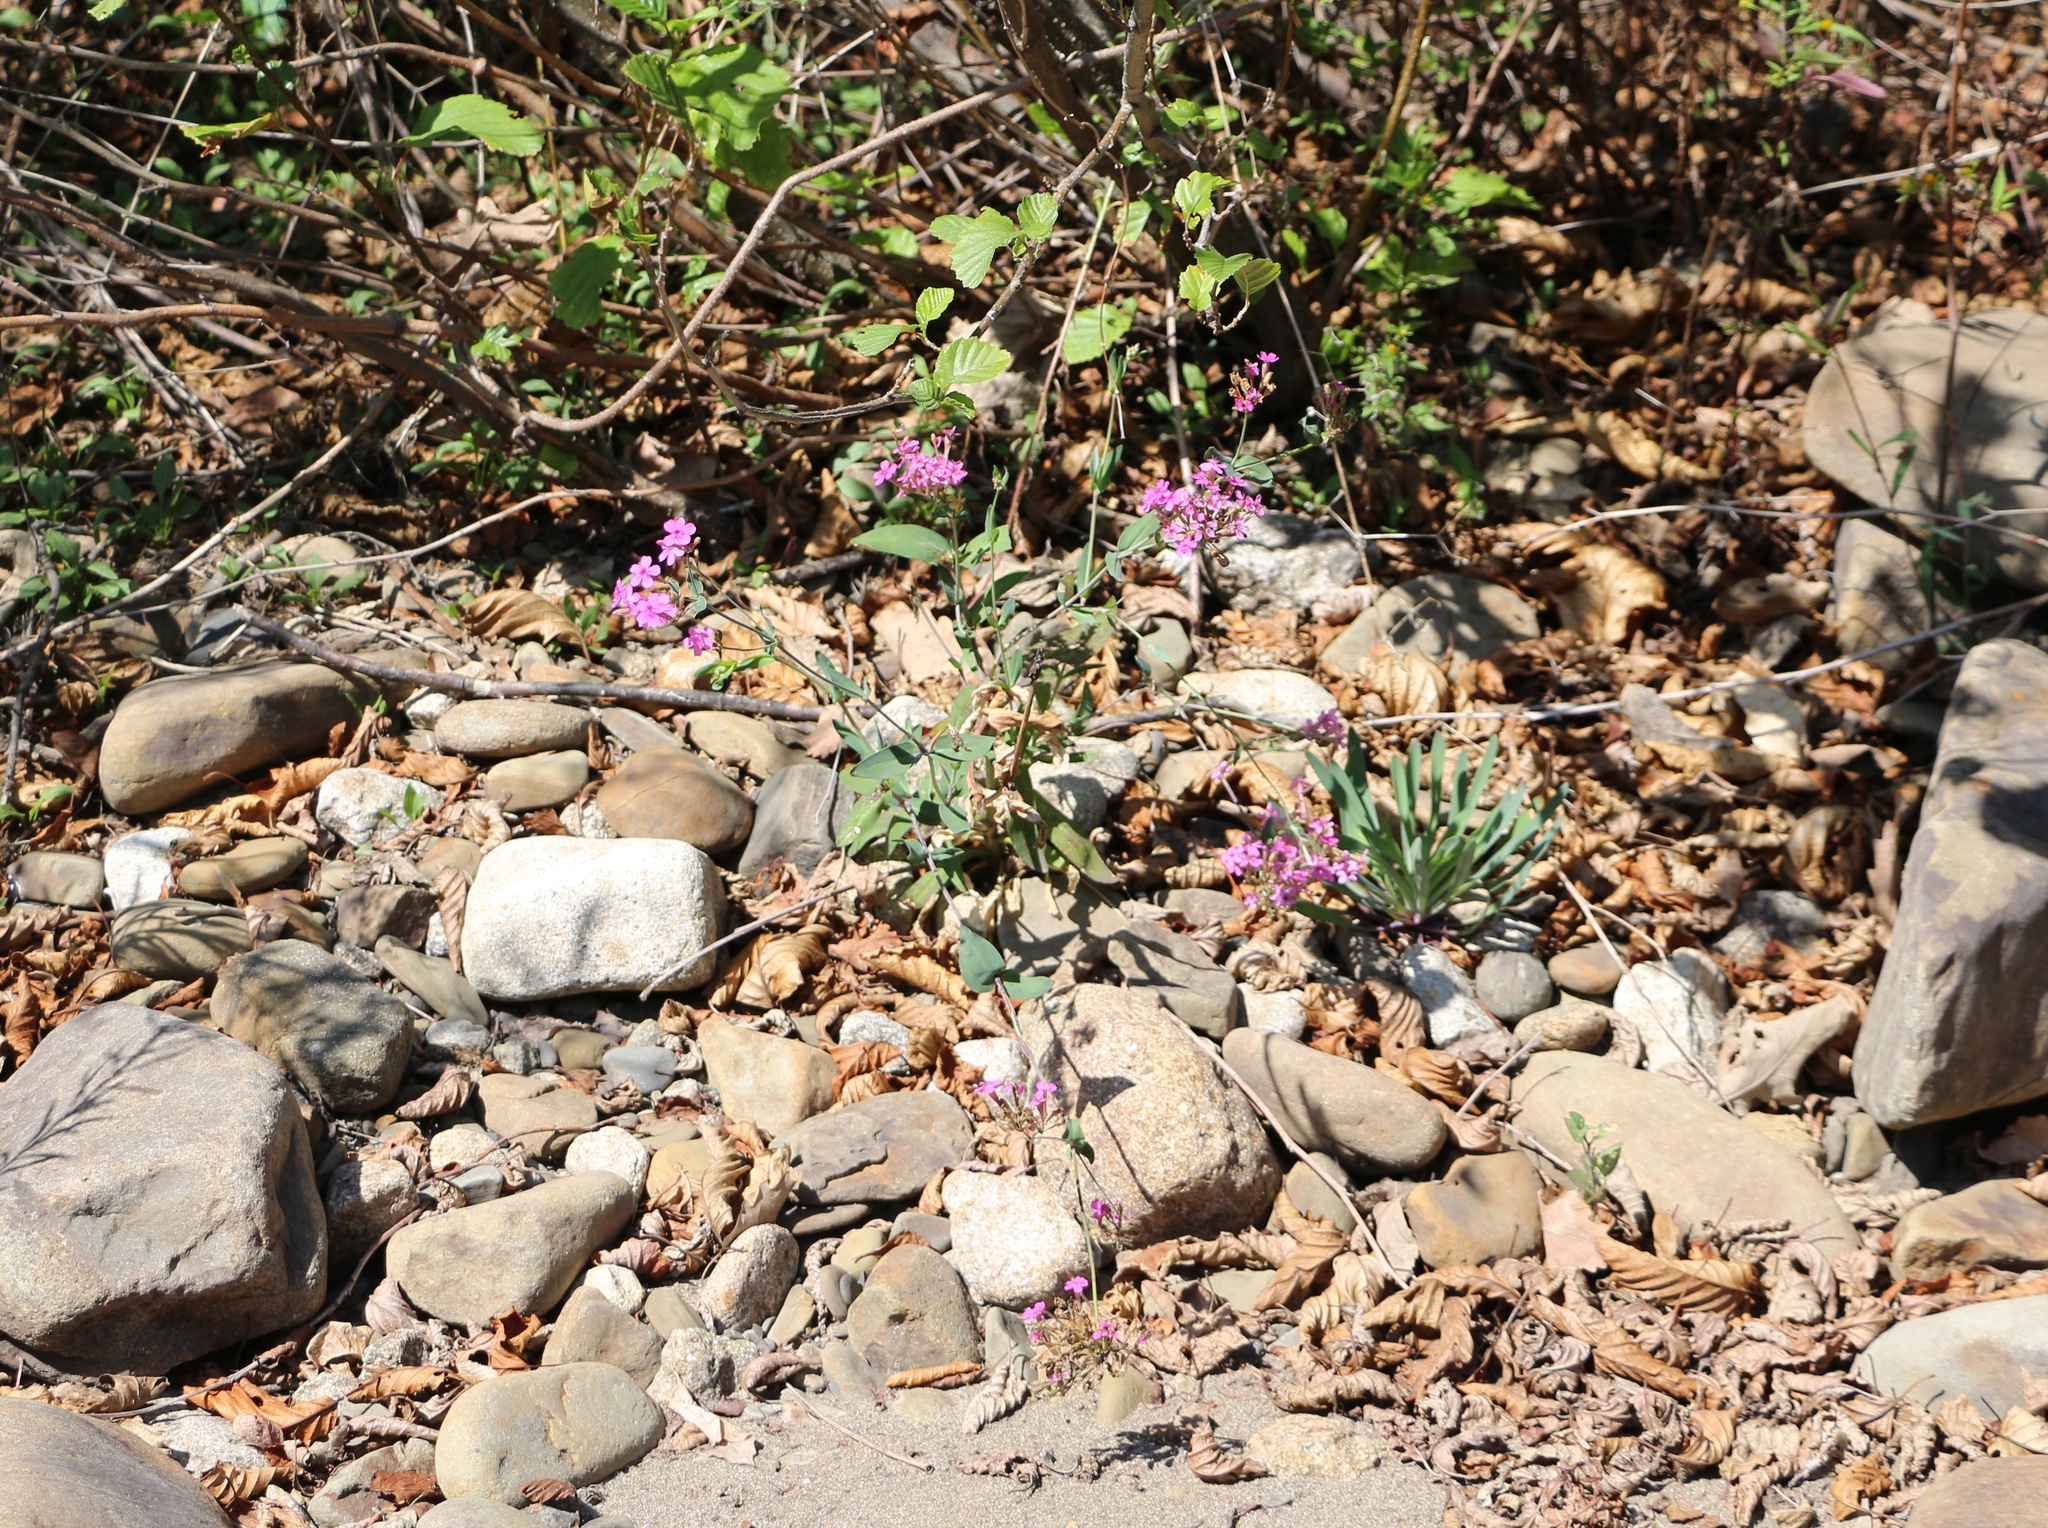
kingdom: Plantae
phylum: Tracheophyta
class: Magnoliopsida
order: Caryophyllales
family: Caryophyllaceae
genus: Atocion
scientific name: Atocion compactum
